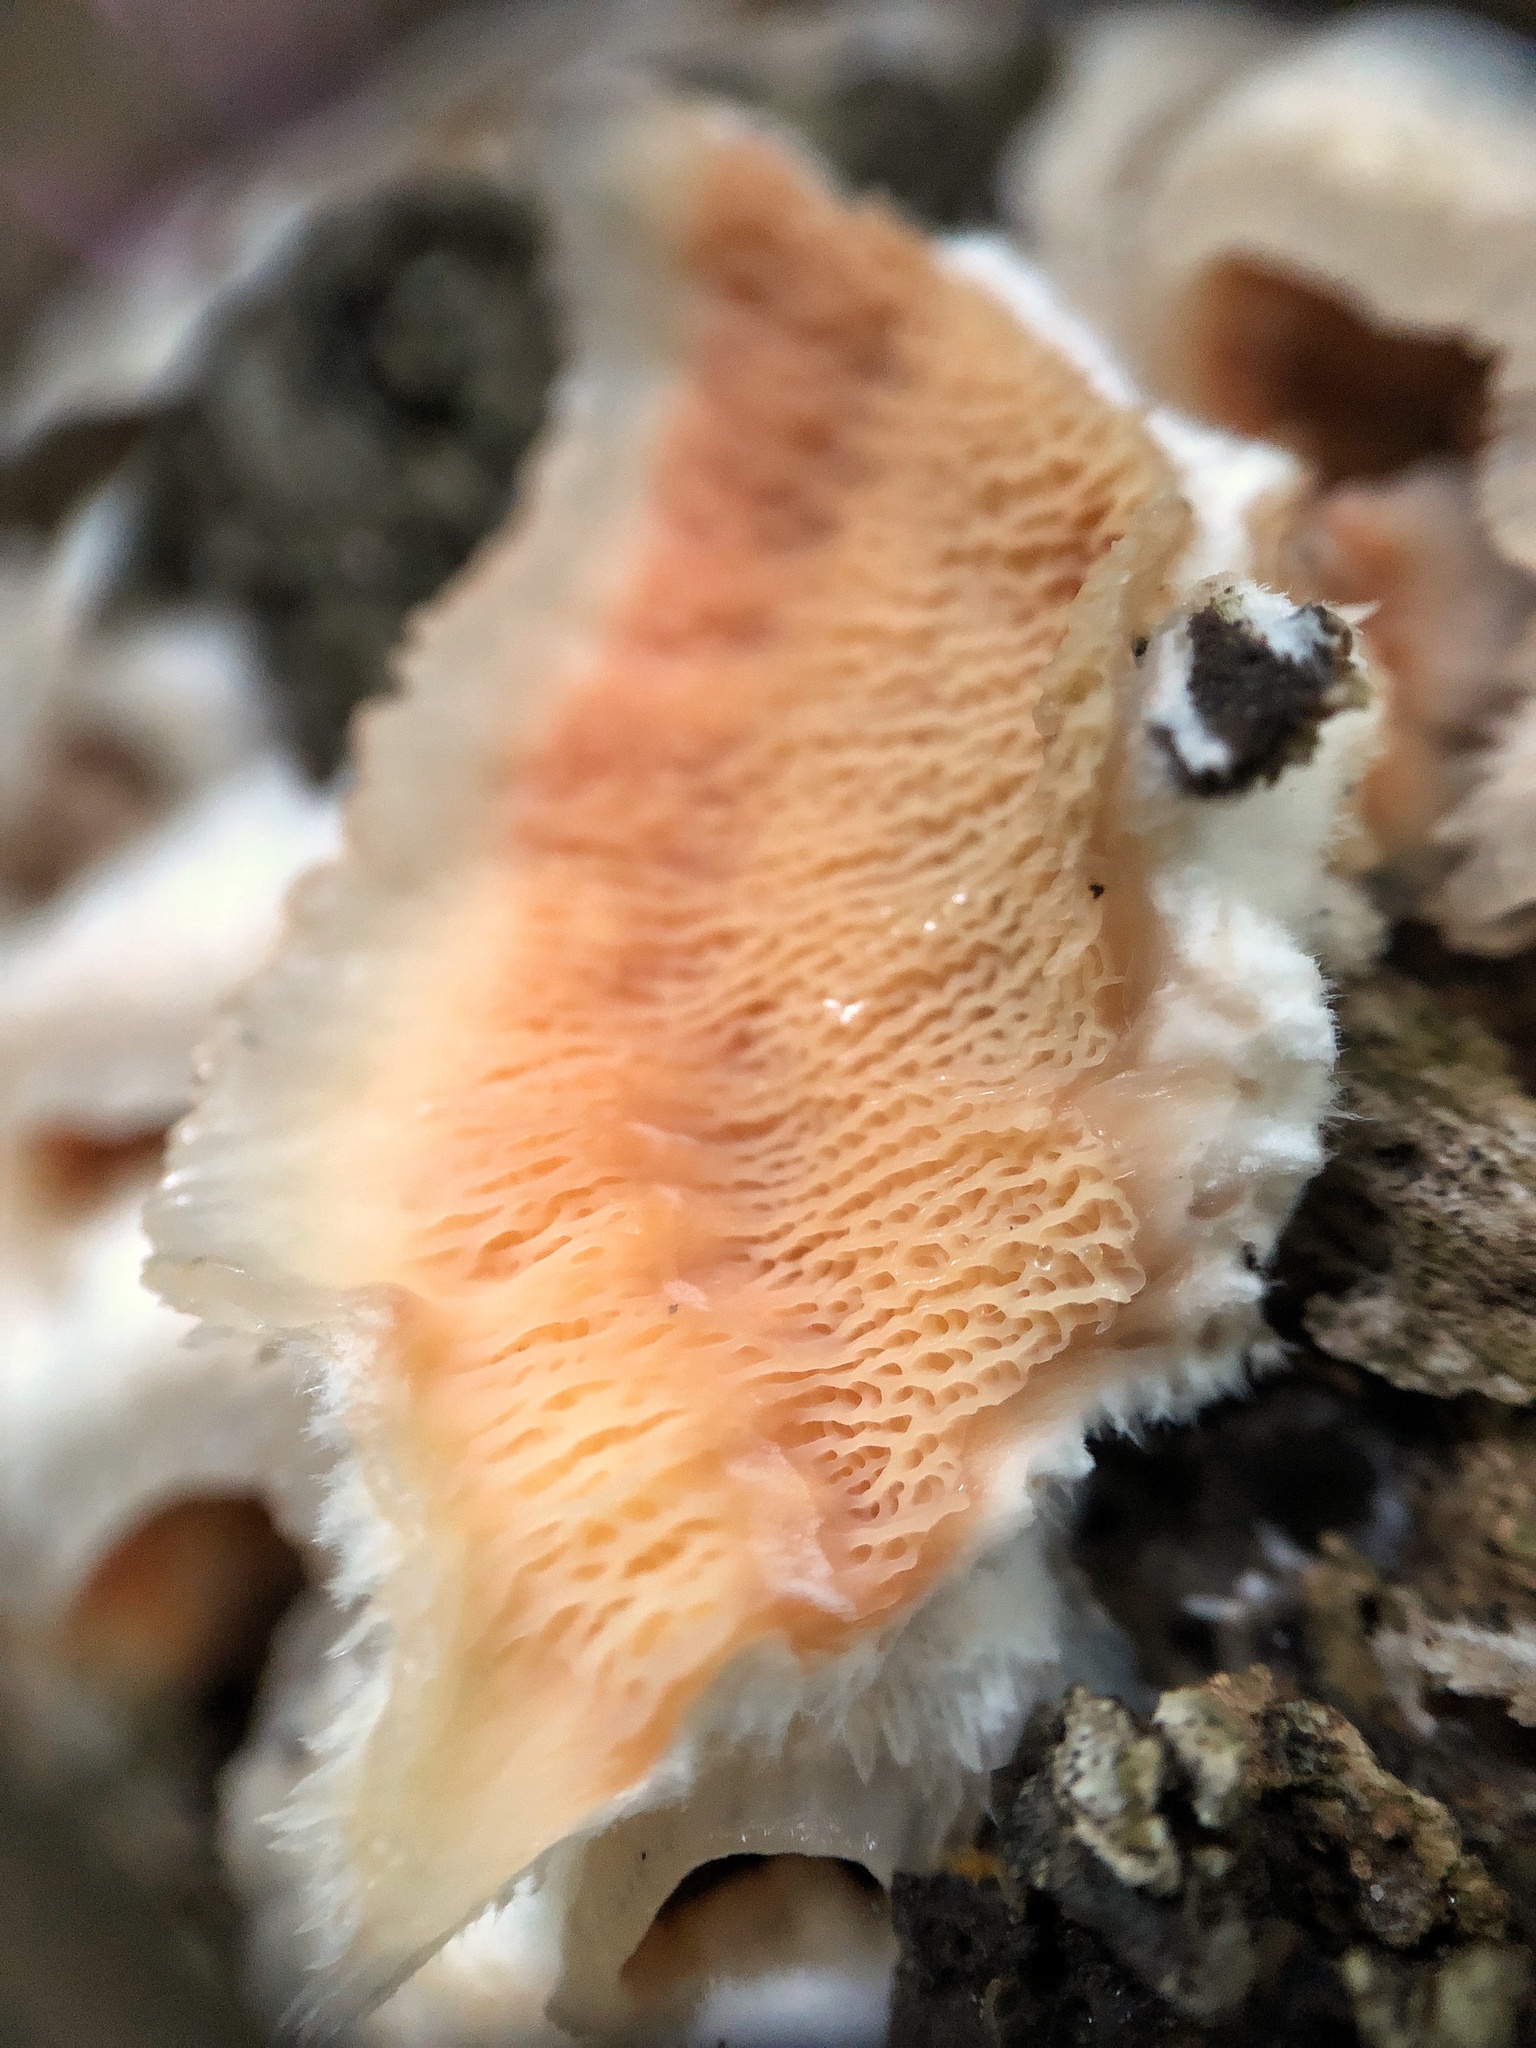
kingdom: Fungi
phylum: Basidiomycota
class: Agaricomycetes
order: Polyporales
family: Meruliaceae
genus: Phlebia
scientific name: Phlebia tremellosa
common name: Jelly rot
